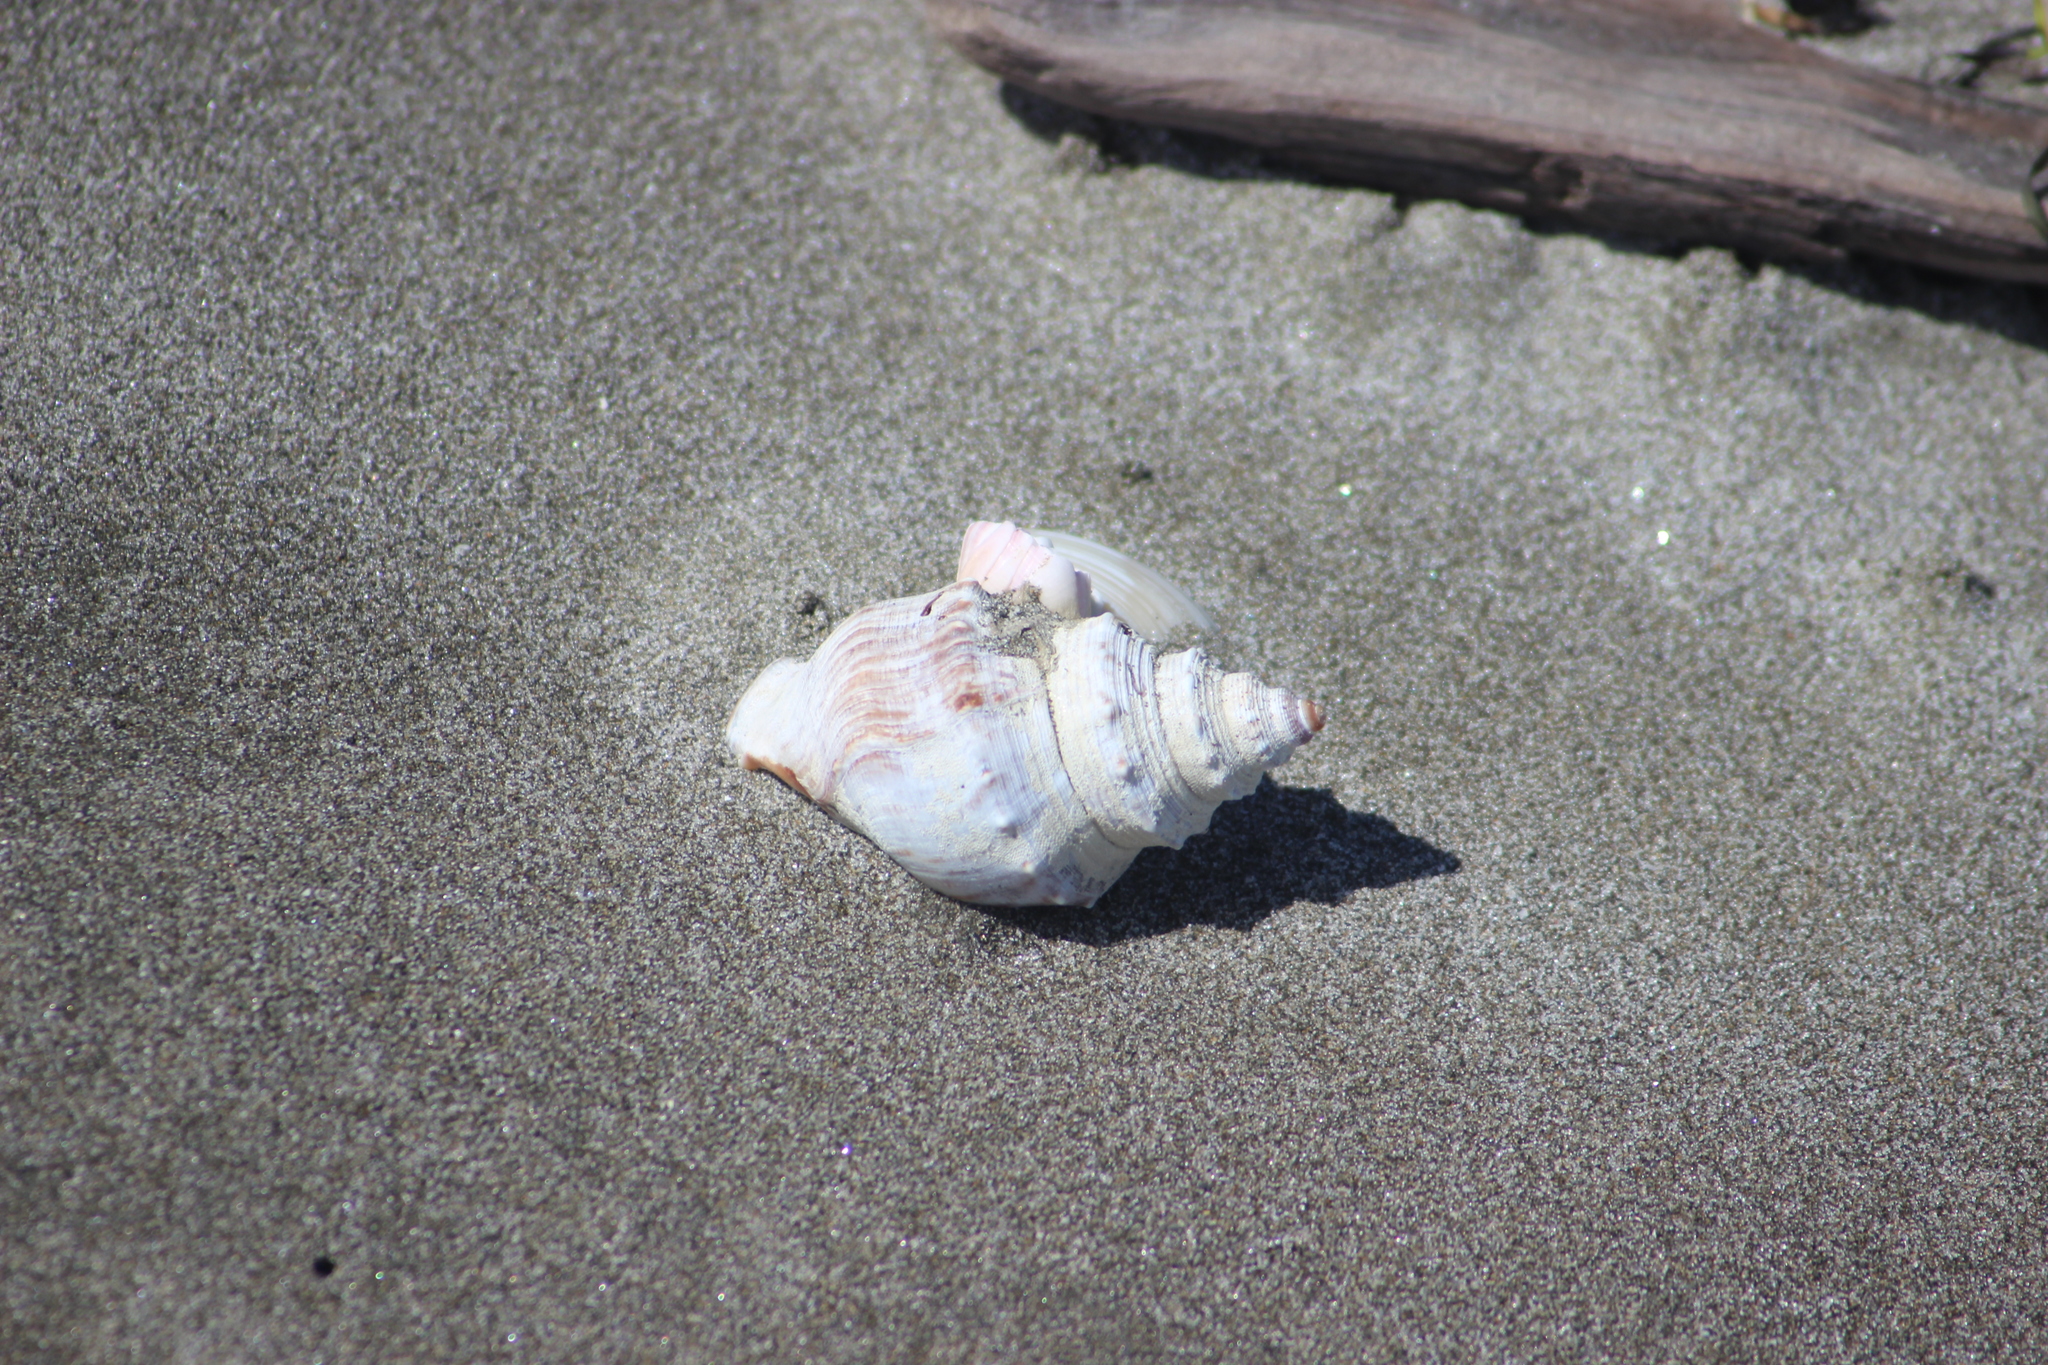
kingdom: Animalia
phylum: Mollusca
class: Gastropoda
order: Littorinimorpha
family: Struthiolariidae
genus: Struthiolaria
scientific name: Struthiolaria papulosa
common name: Large ostrich foot
